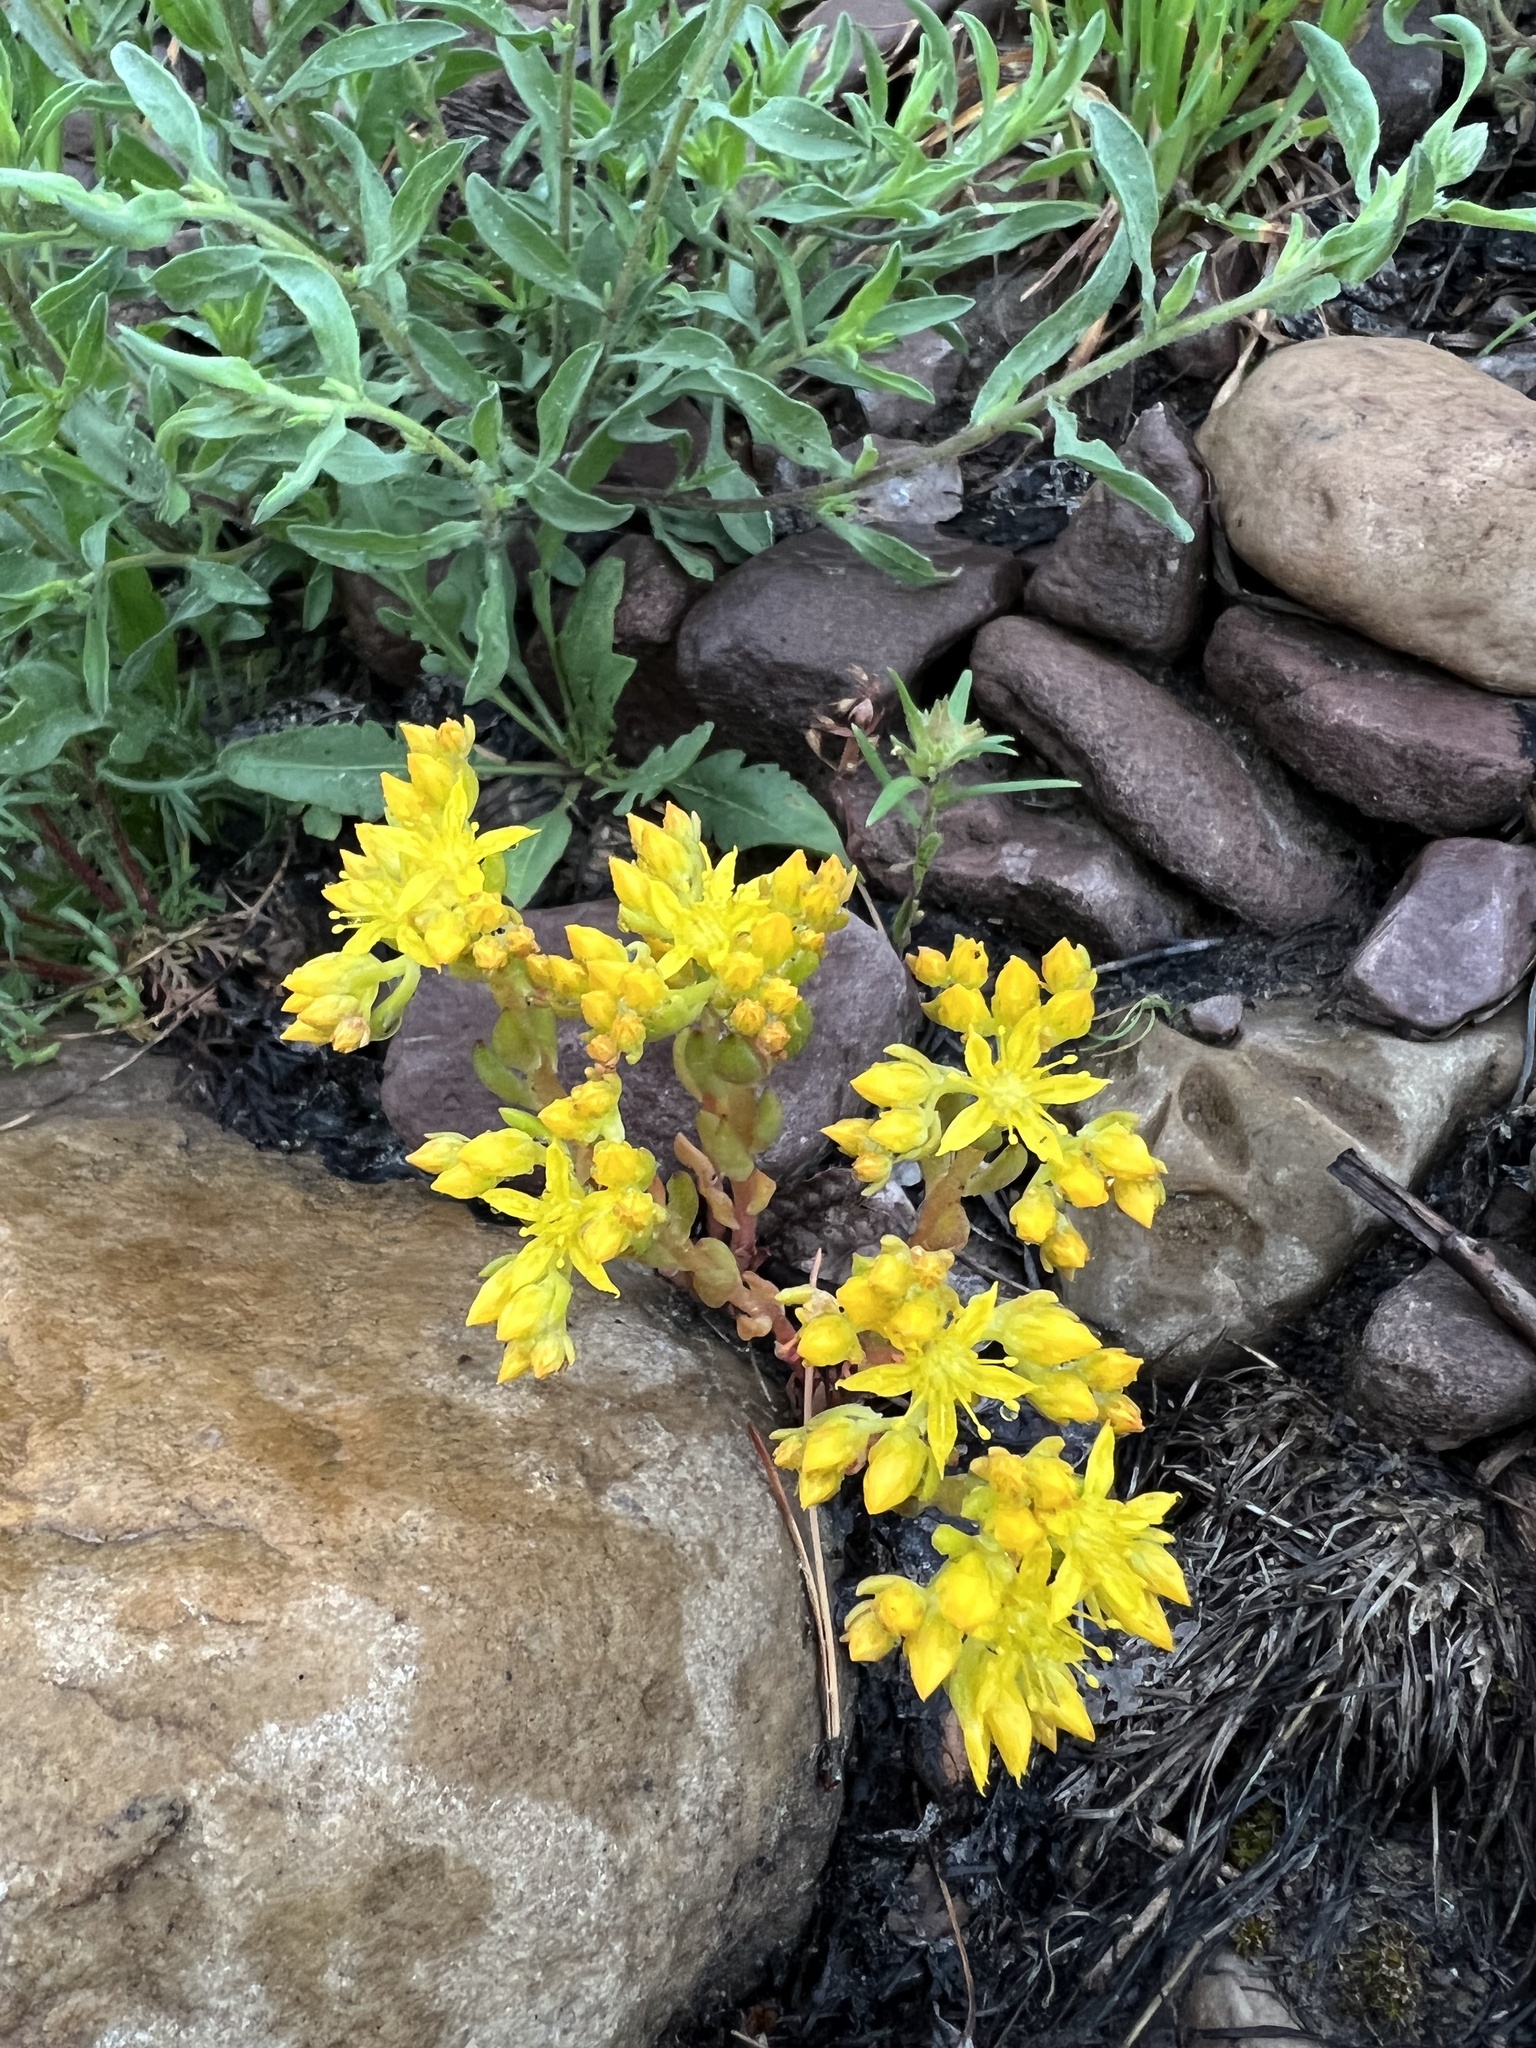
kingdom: Plantae
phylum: Tracheophyta
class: Magnoliopsida
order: Saxifragales
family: Crassulaceae
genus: Sedum
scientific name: Sedum lanceolatum
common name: Common stonecrop
